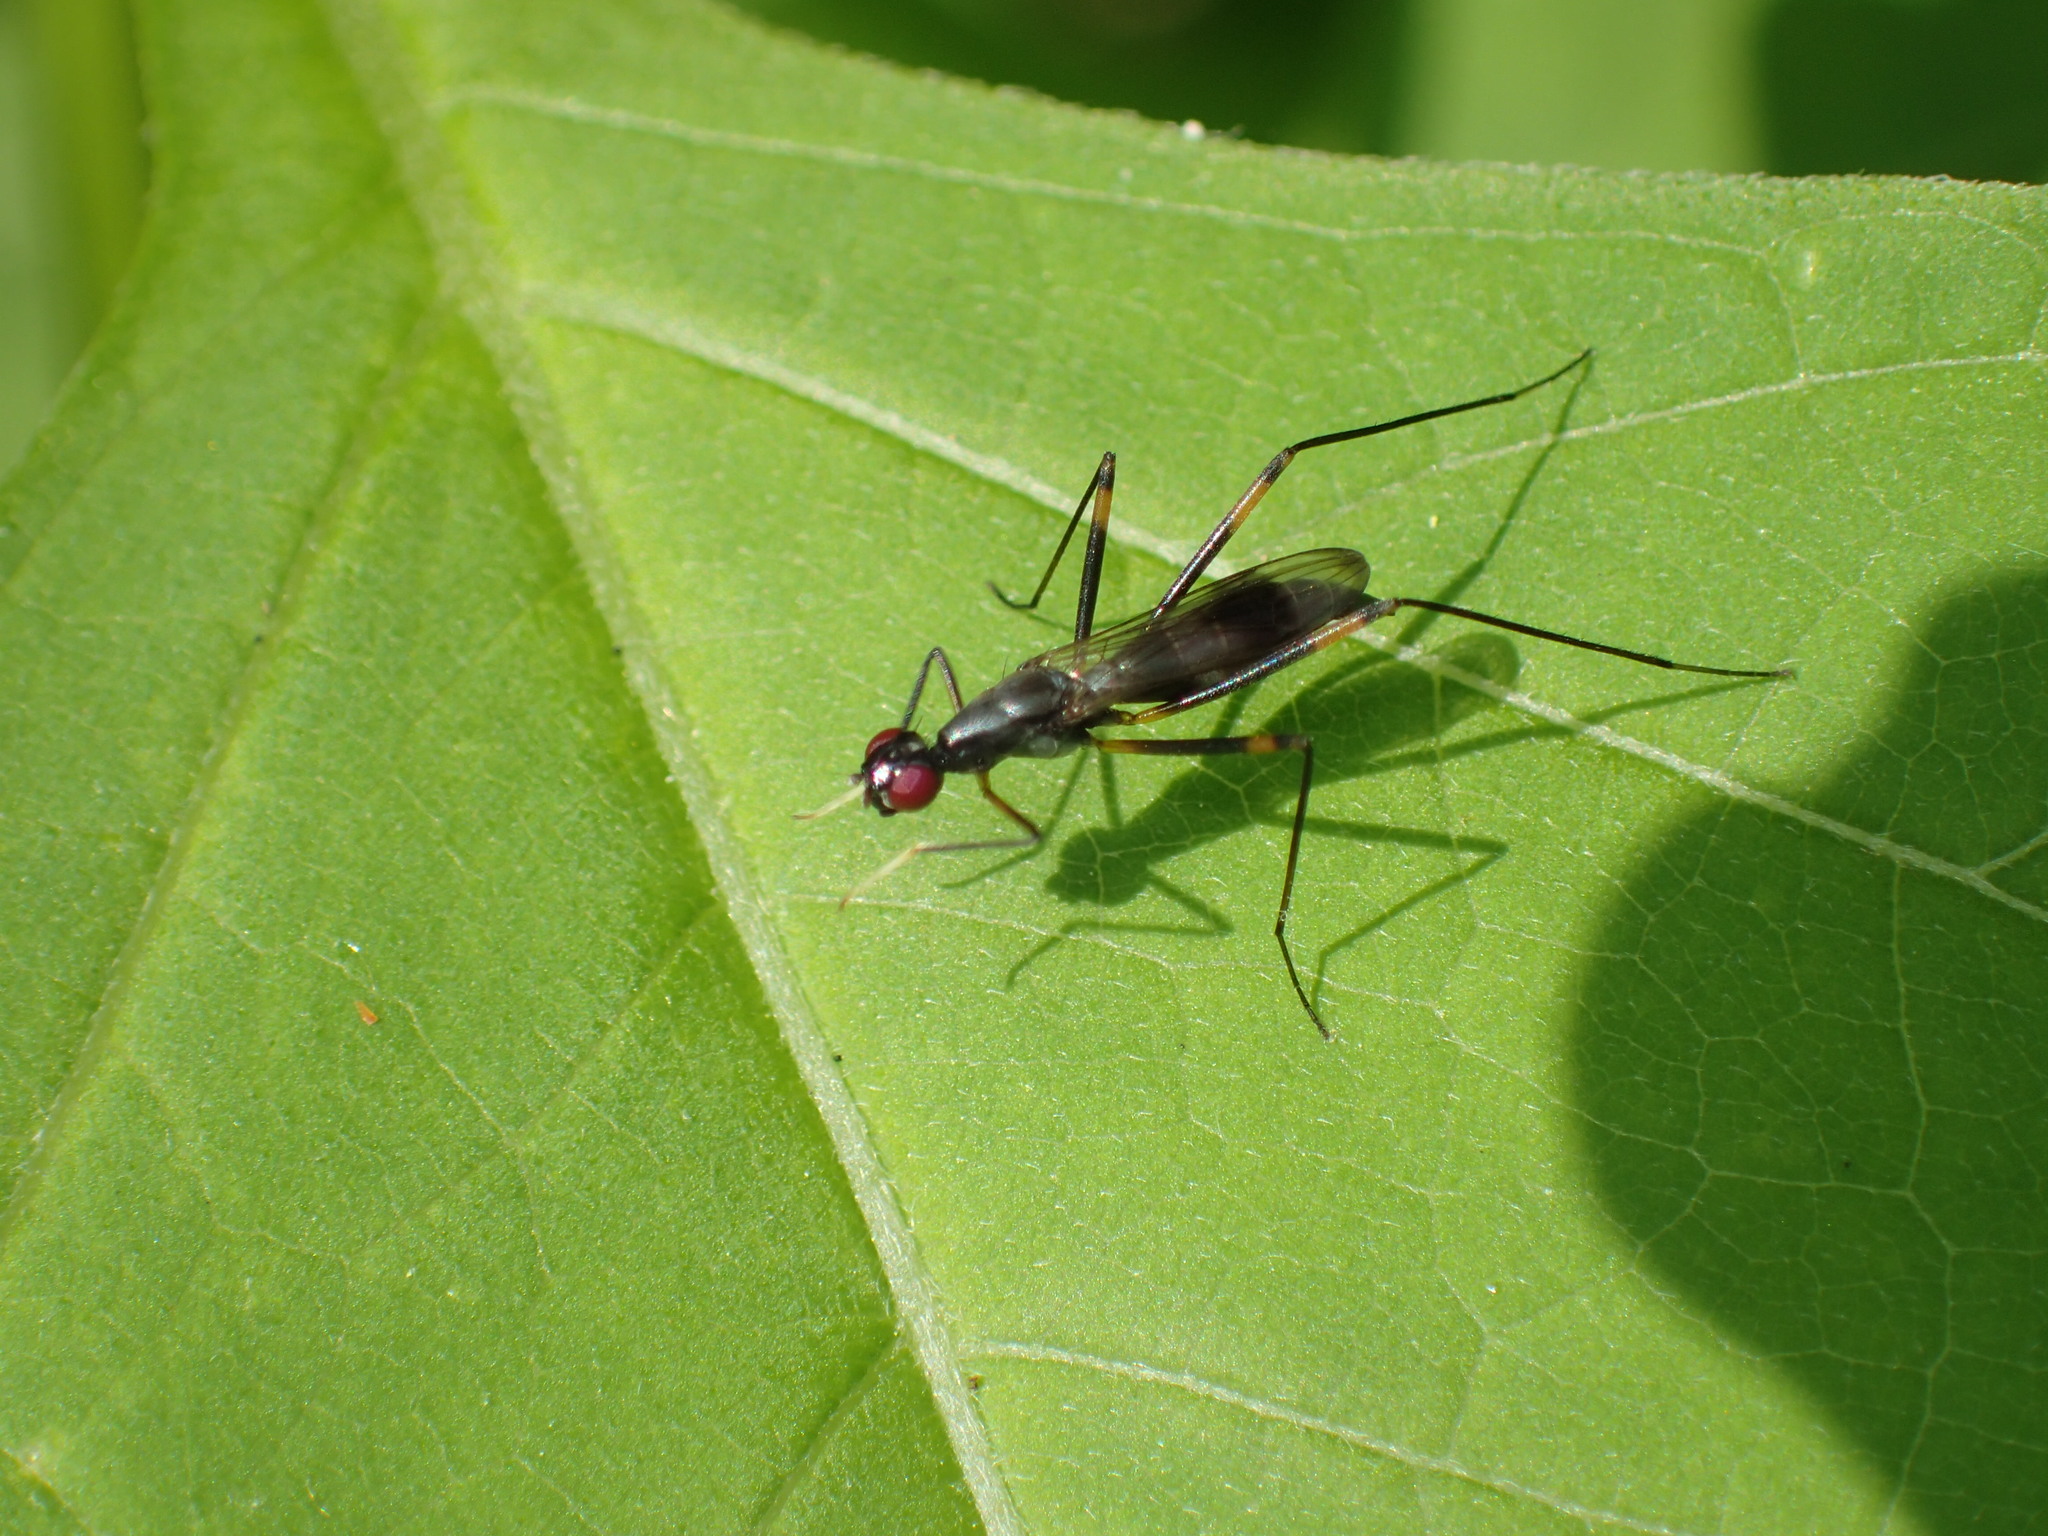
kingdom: Animalia
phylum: Arthropoda
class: Insecta
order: Diptera
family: Micropezidae
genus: Rainieria
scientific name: Rainieria antennaepes
